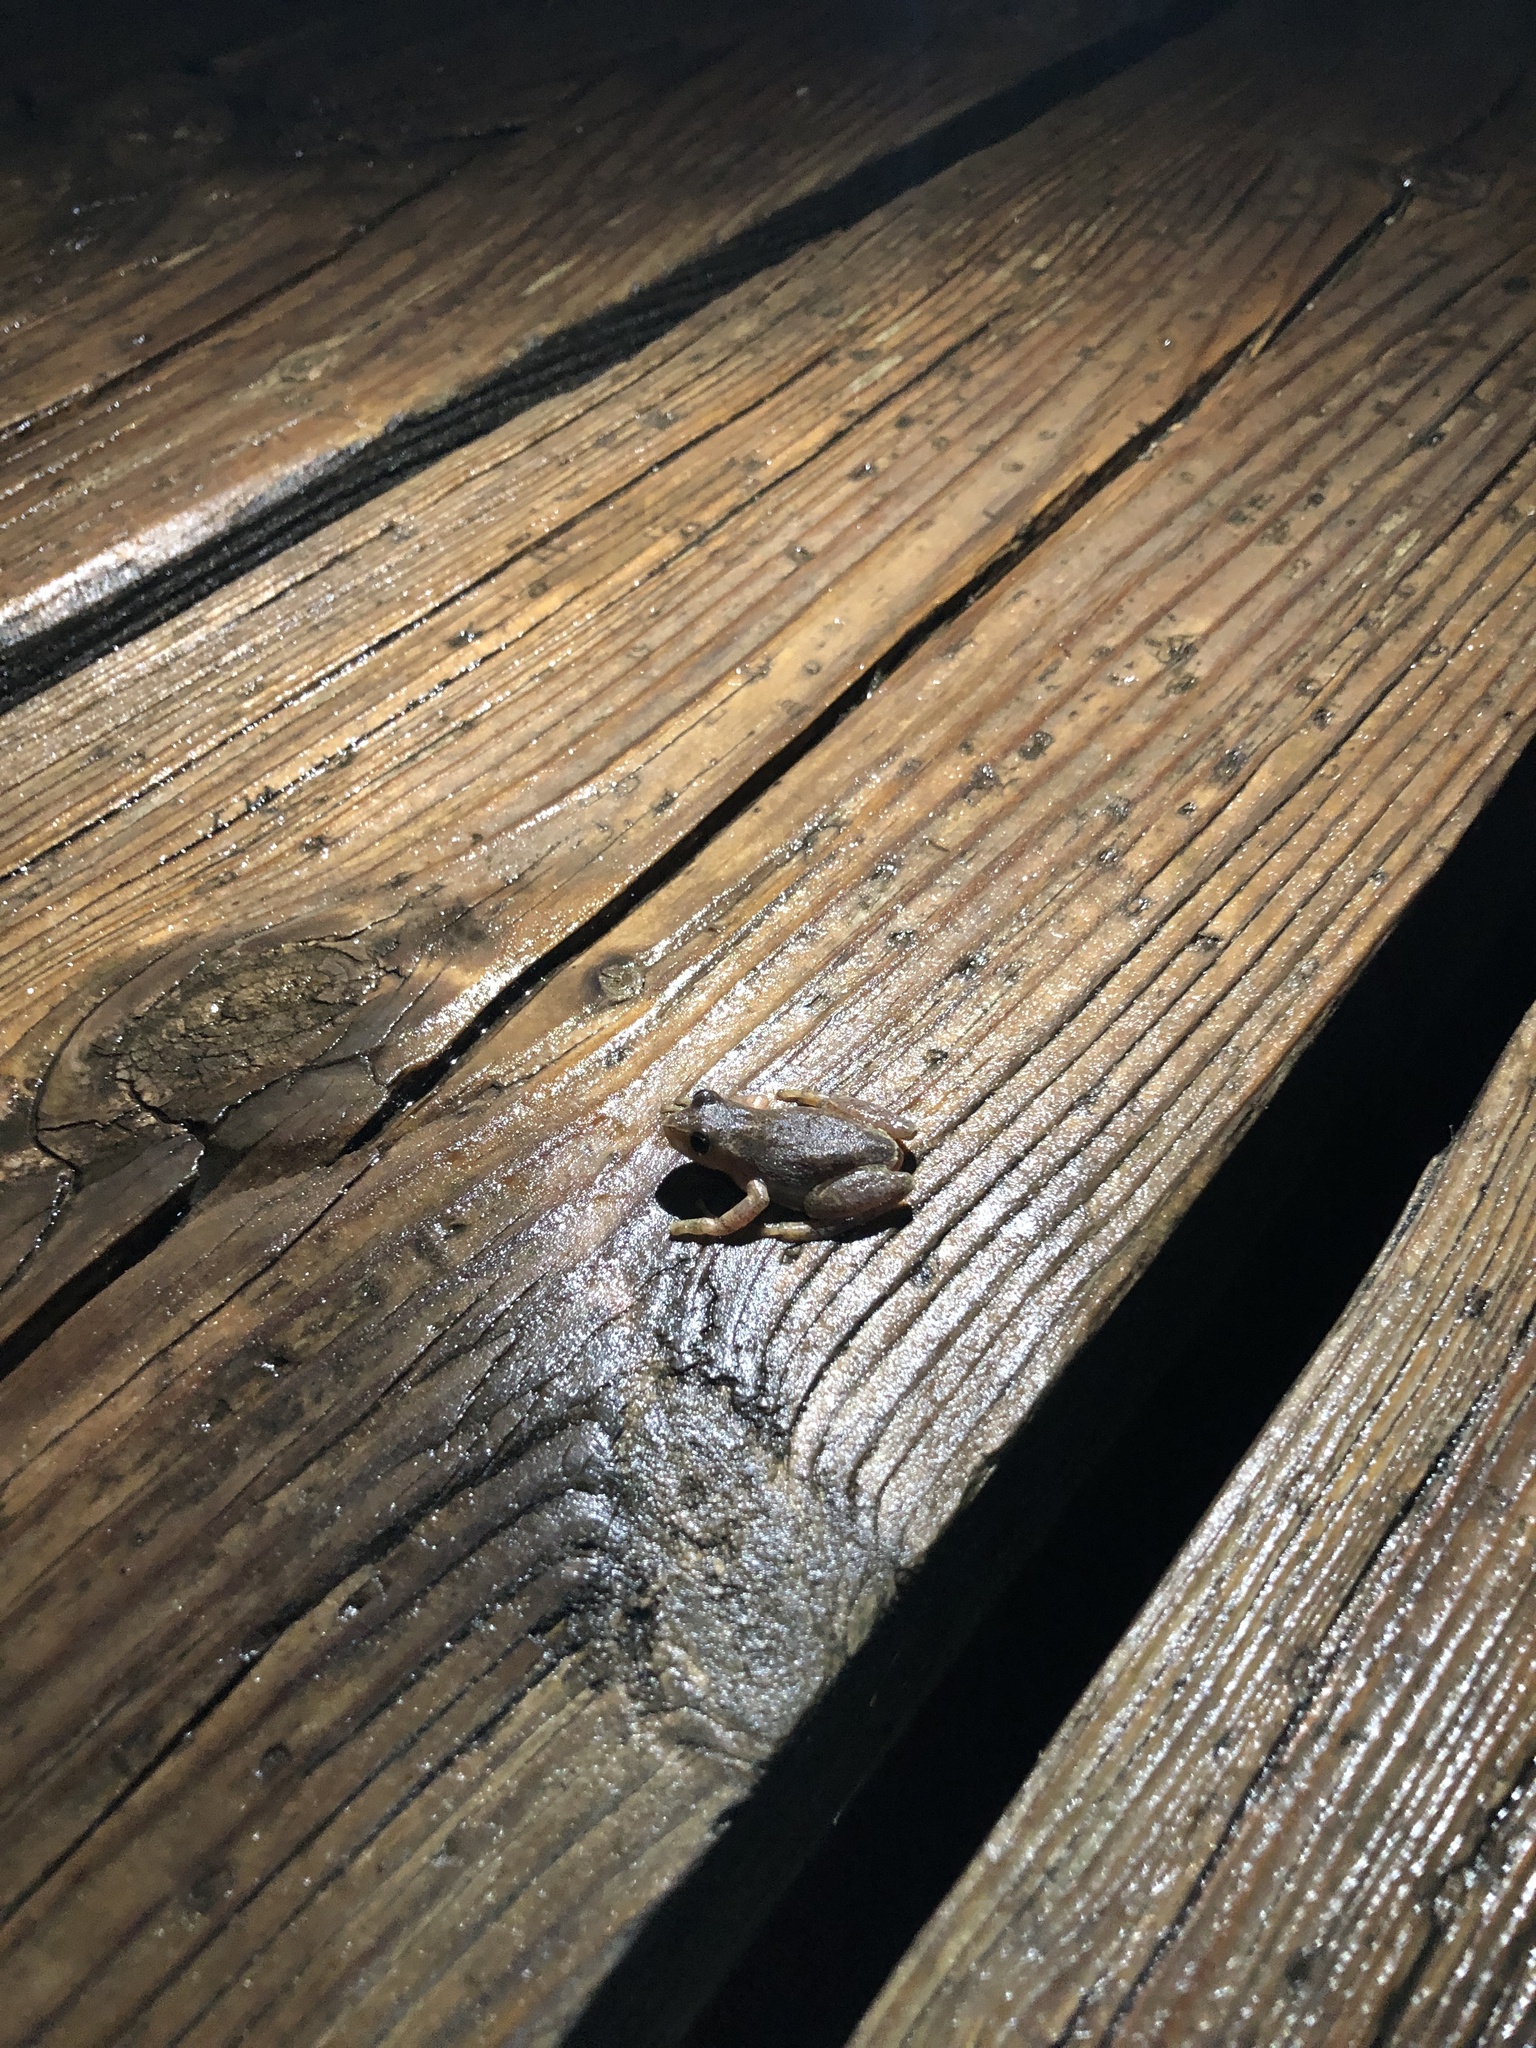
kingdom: Animalia
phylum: Chordata
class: Amphibia
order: Anura
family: Hylidae
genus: Pseudacris
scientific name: Pseudacris crucifer
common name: Spring peeper
